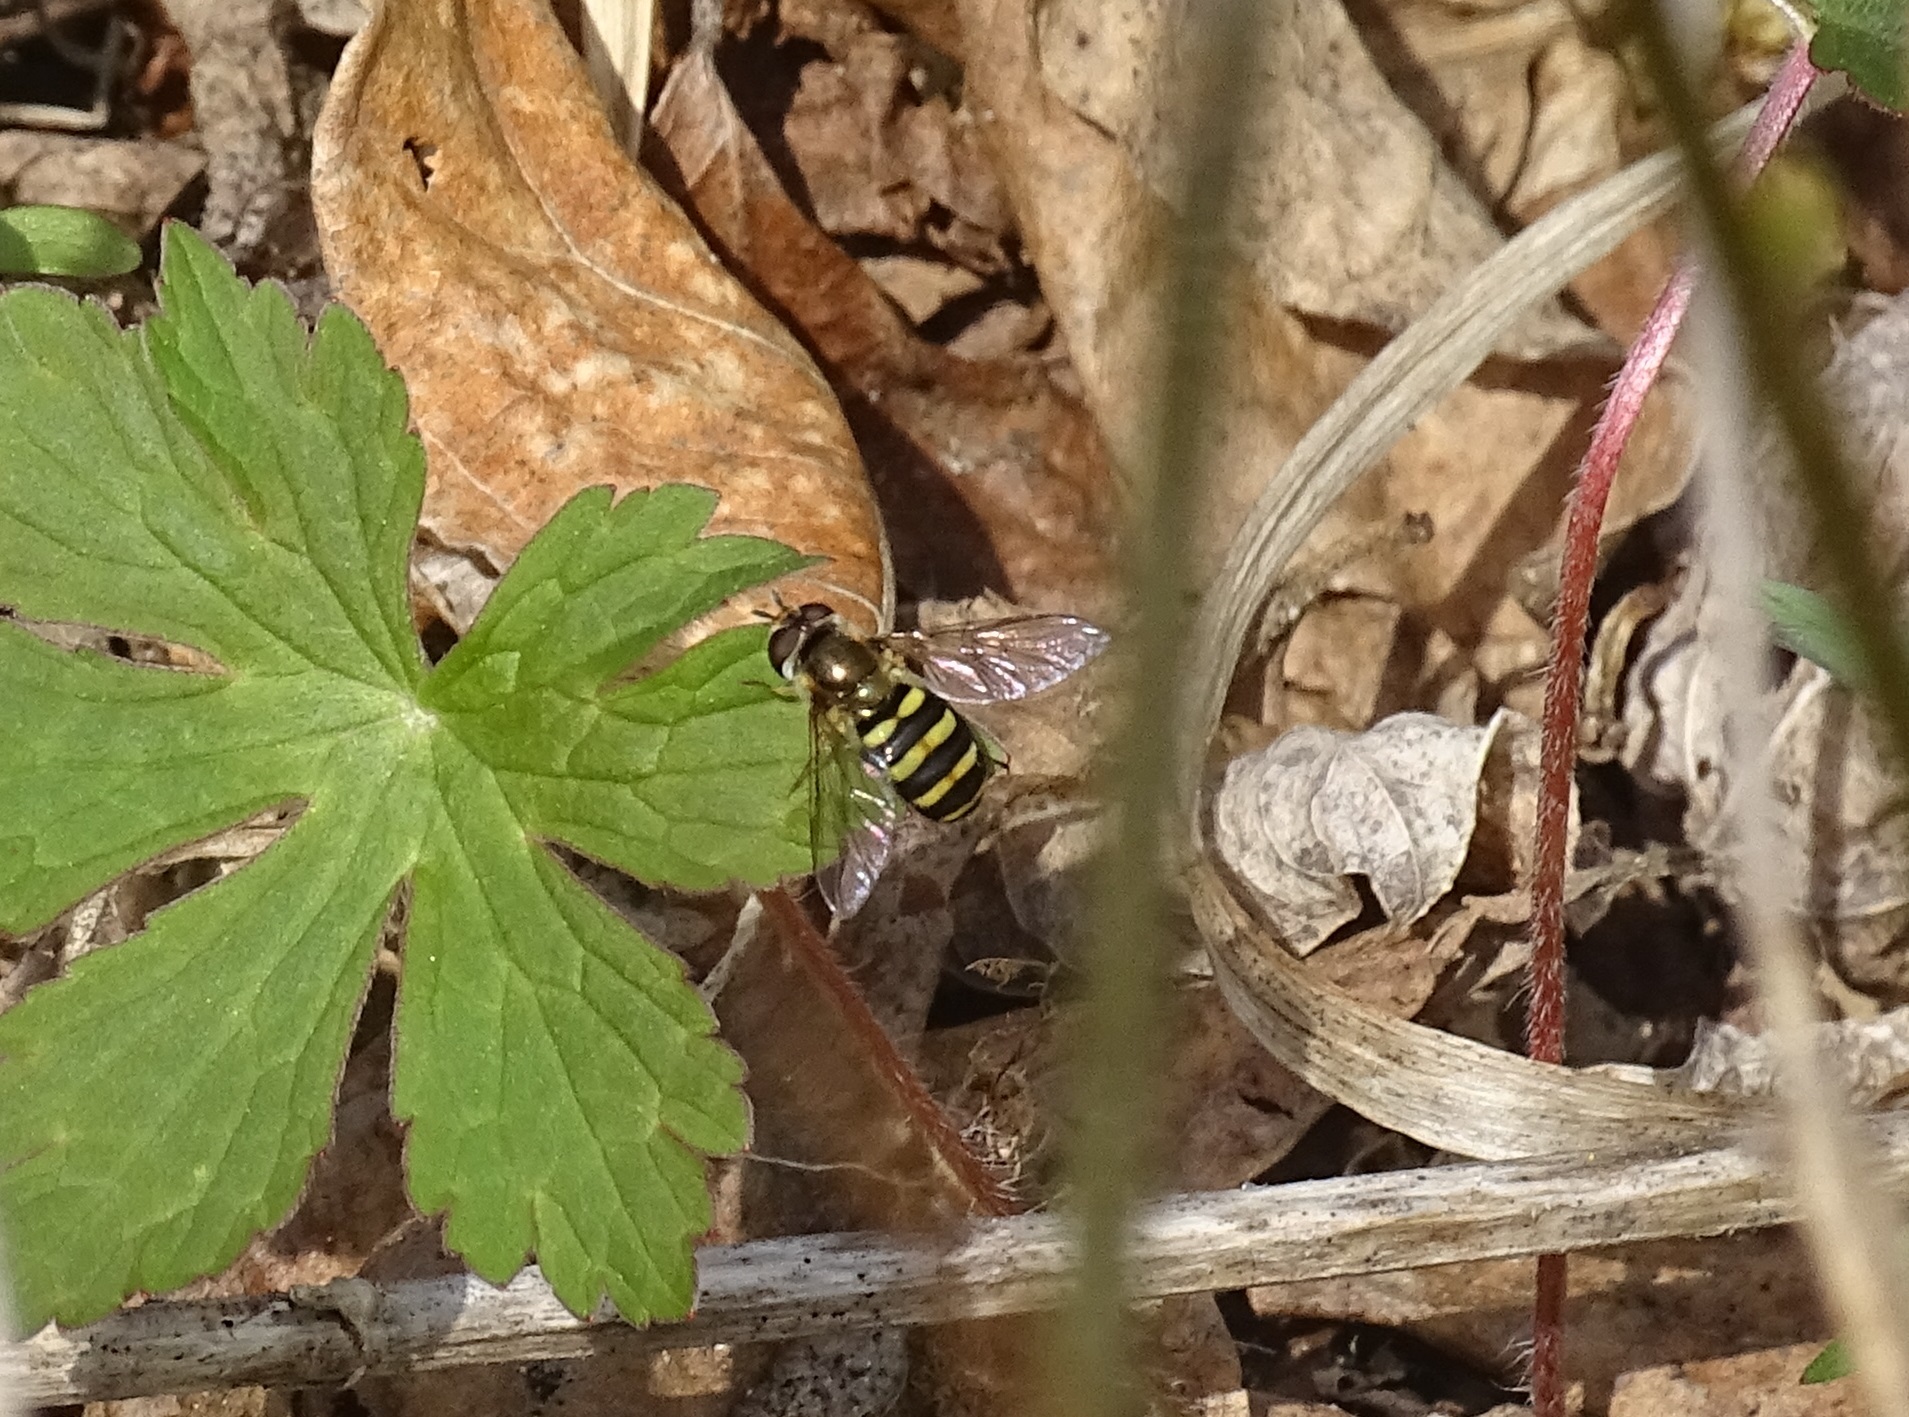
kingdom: Animalia
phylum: Arthropoda
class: Insecta
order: Diptera
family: Syrphidae
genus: Eupeodes
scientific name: Eupeodes
